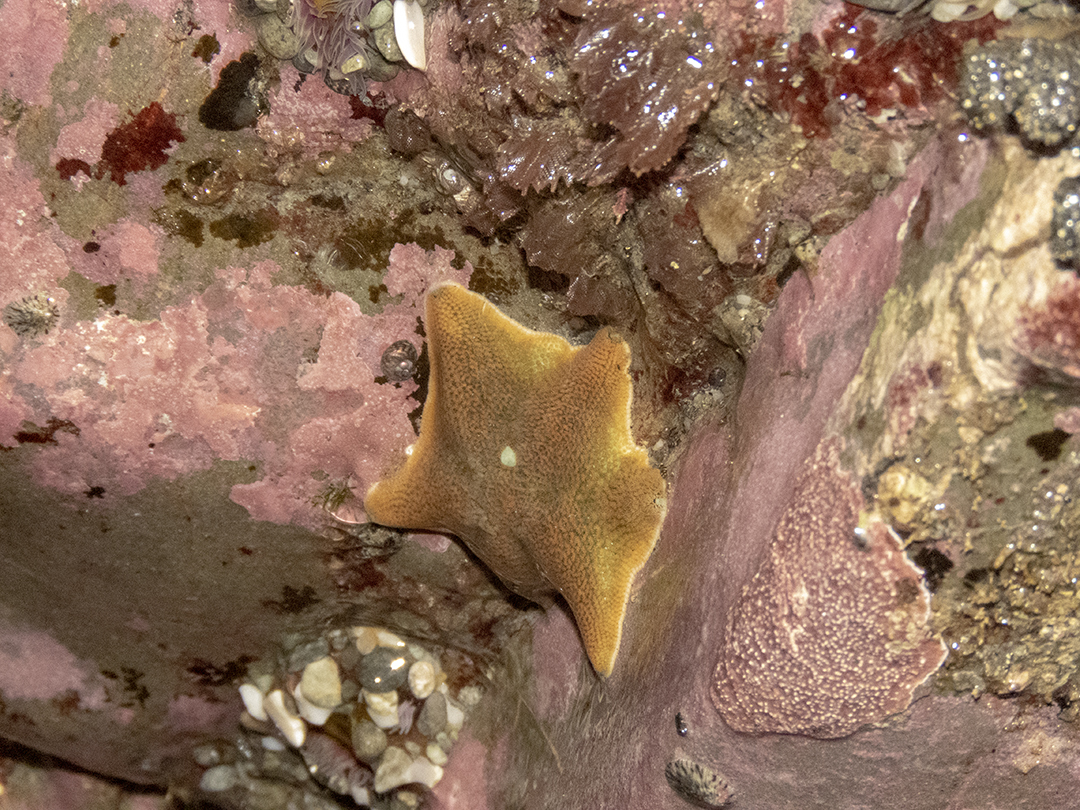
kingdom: Animalia
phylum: Echinodermata
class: Asteroidea
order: Valvatida
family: Asterinidae
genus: Patiriella
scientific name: Patiriella regularis
